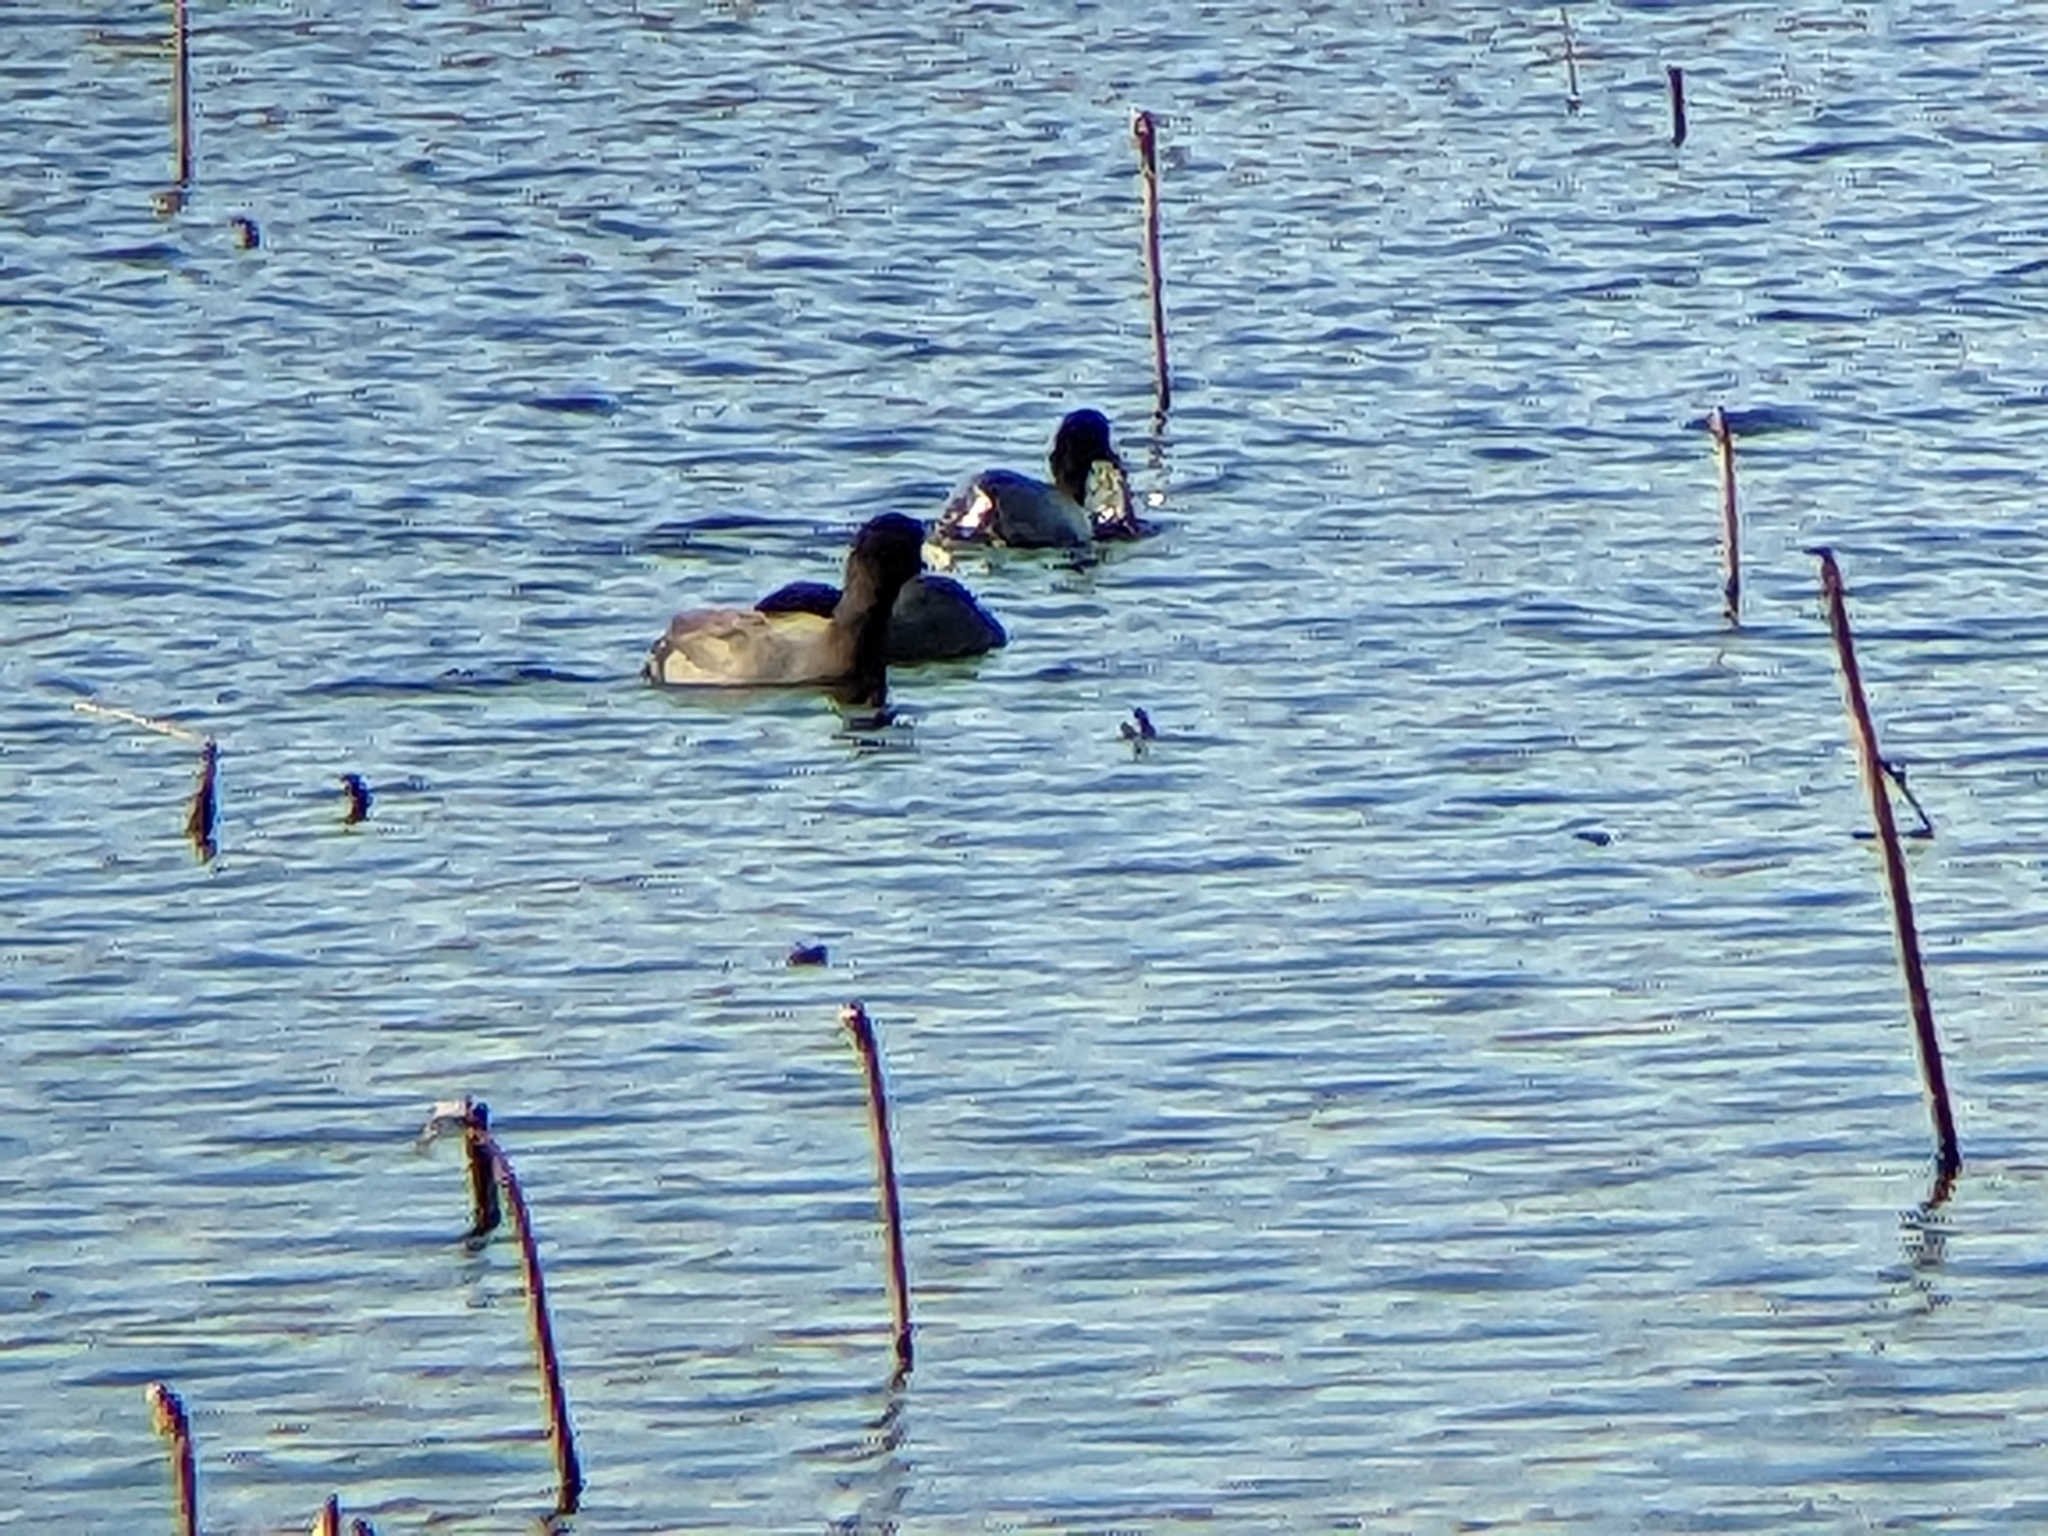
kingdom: Animalia
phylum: Chordata
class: Aves
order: Gruiformes
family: Rallidae
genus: Fulica
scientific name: Fulica americana
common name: American coot
